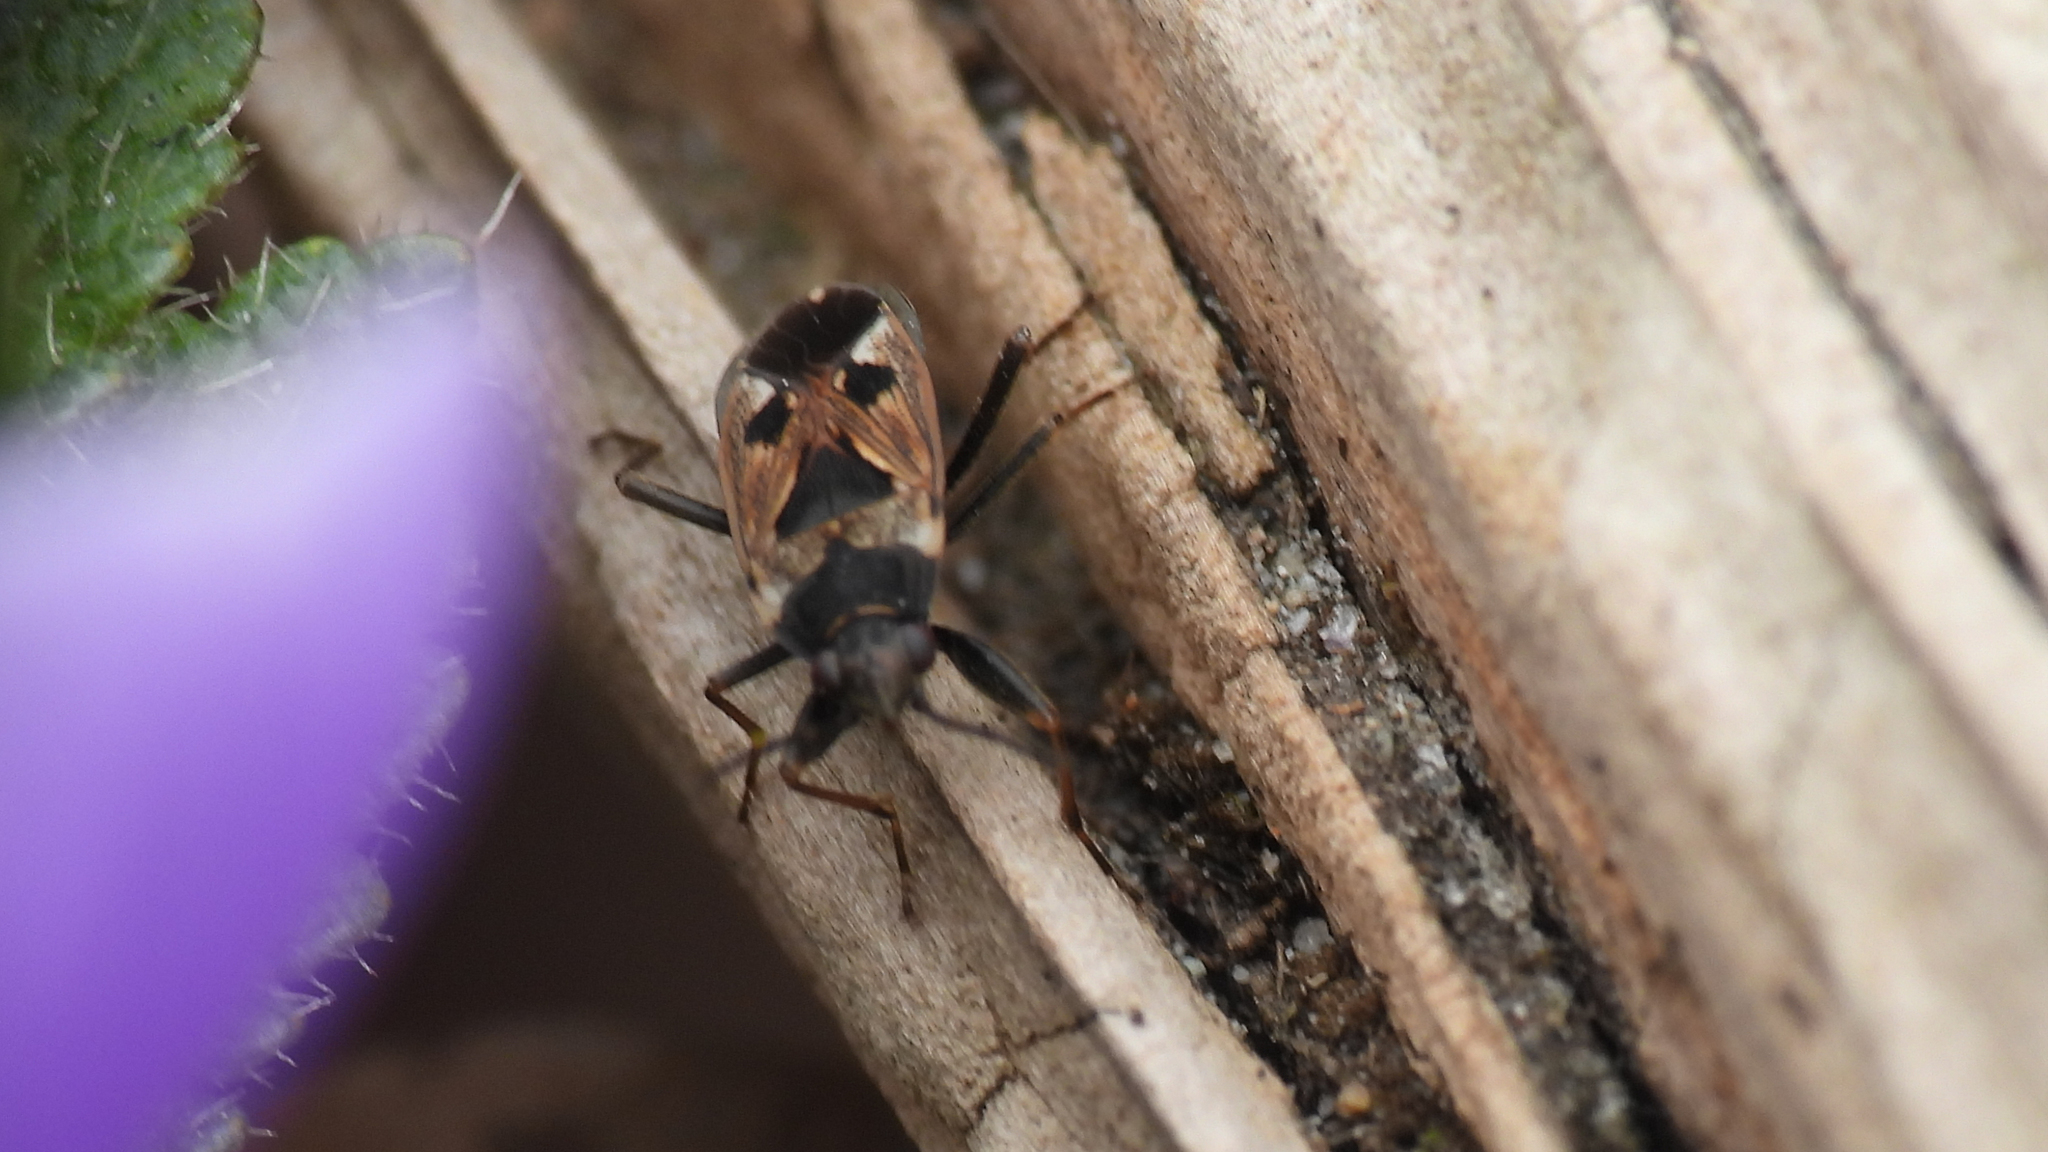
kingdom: Animalia
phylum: Arthropoda
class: Insecta
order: Hemiptera
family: Rhyparochromidae
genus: Rhyparochromus
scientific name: Rhyparochromus vulgaris
